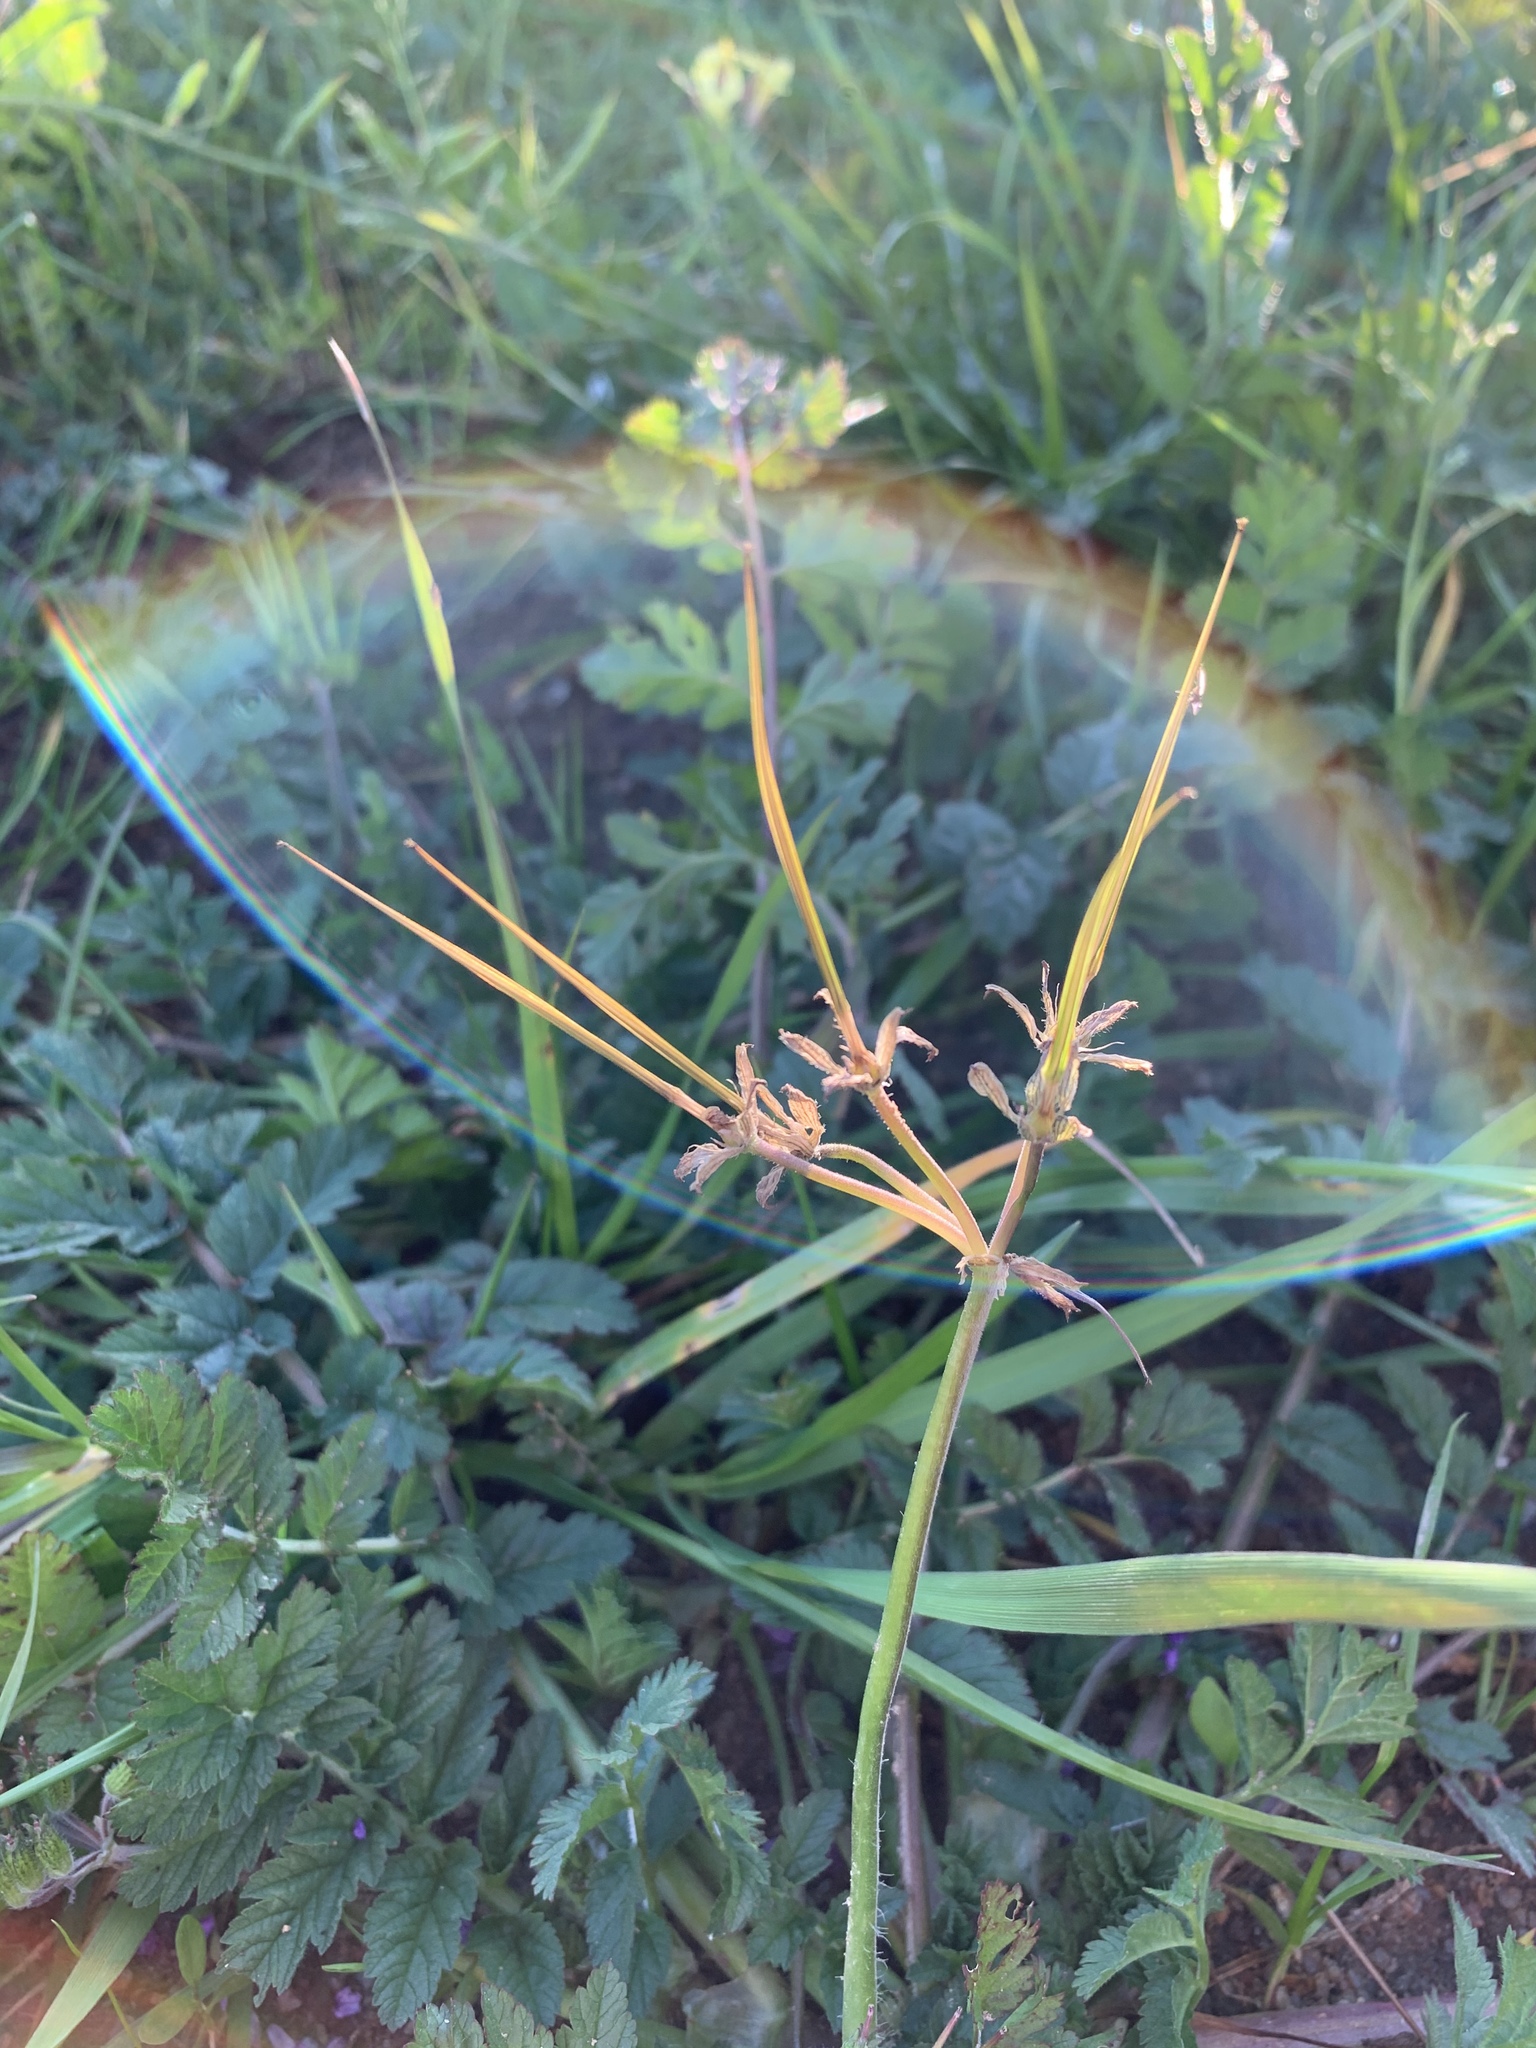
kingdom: Plantae
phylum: Tracheophyta
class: Magnoliopsida
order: Geraniales
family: Geraniaceae
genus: Erodium
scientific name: Erodium moschatum
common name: Musk stork's-bill
